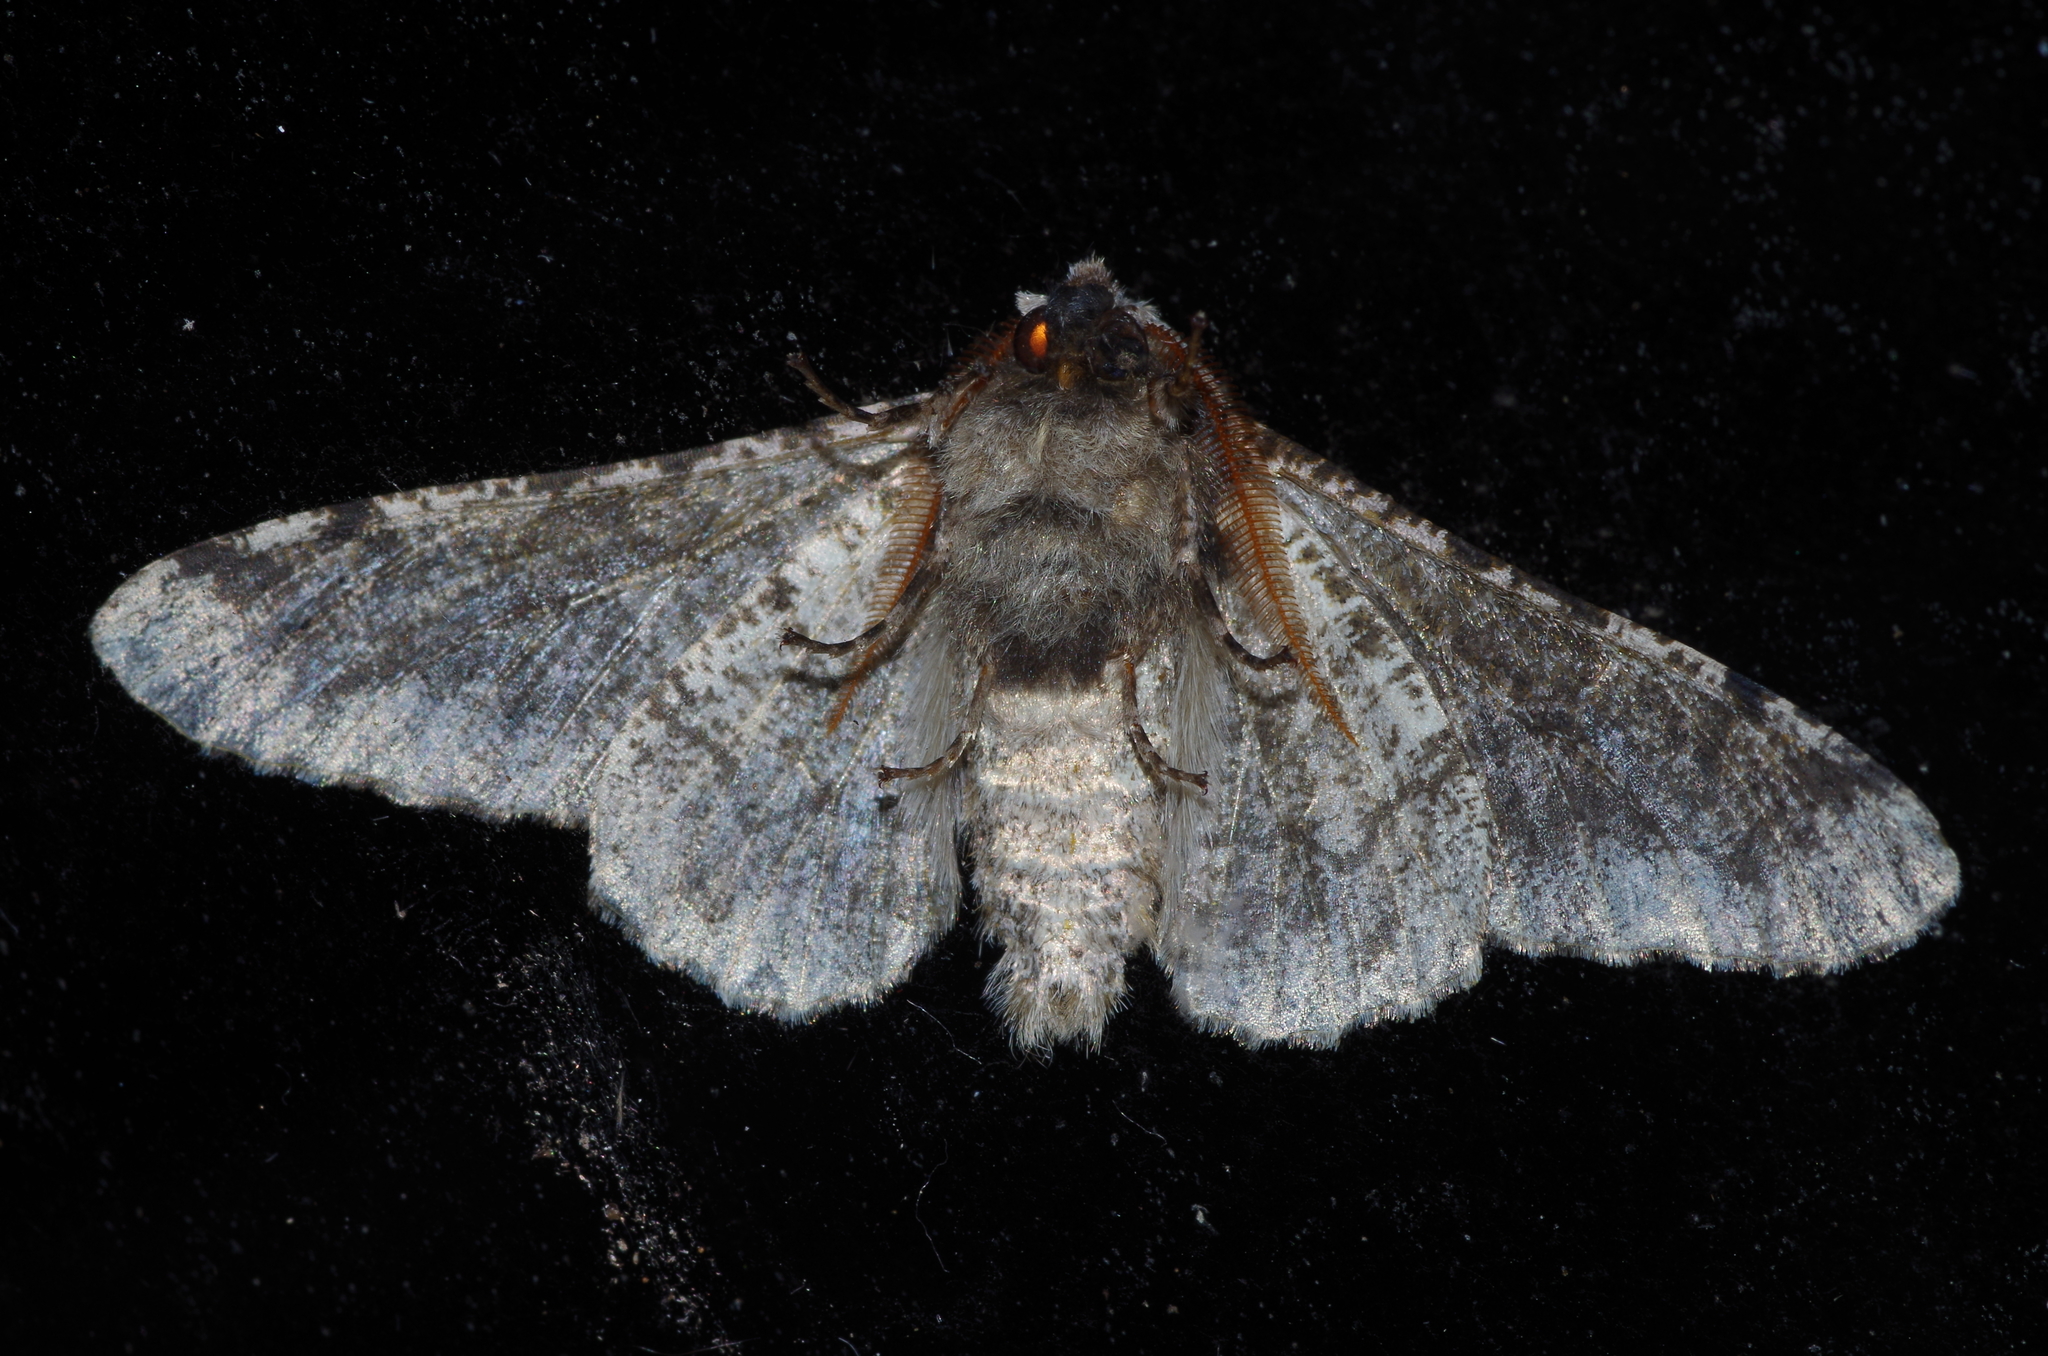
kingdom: Animalia
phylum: Arthropoda
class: Insecta
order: Lepidoptera
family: Geometridae
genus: Biston
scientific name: Biston robustum
